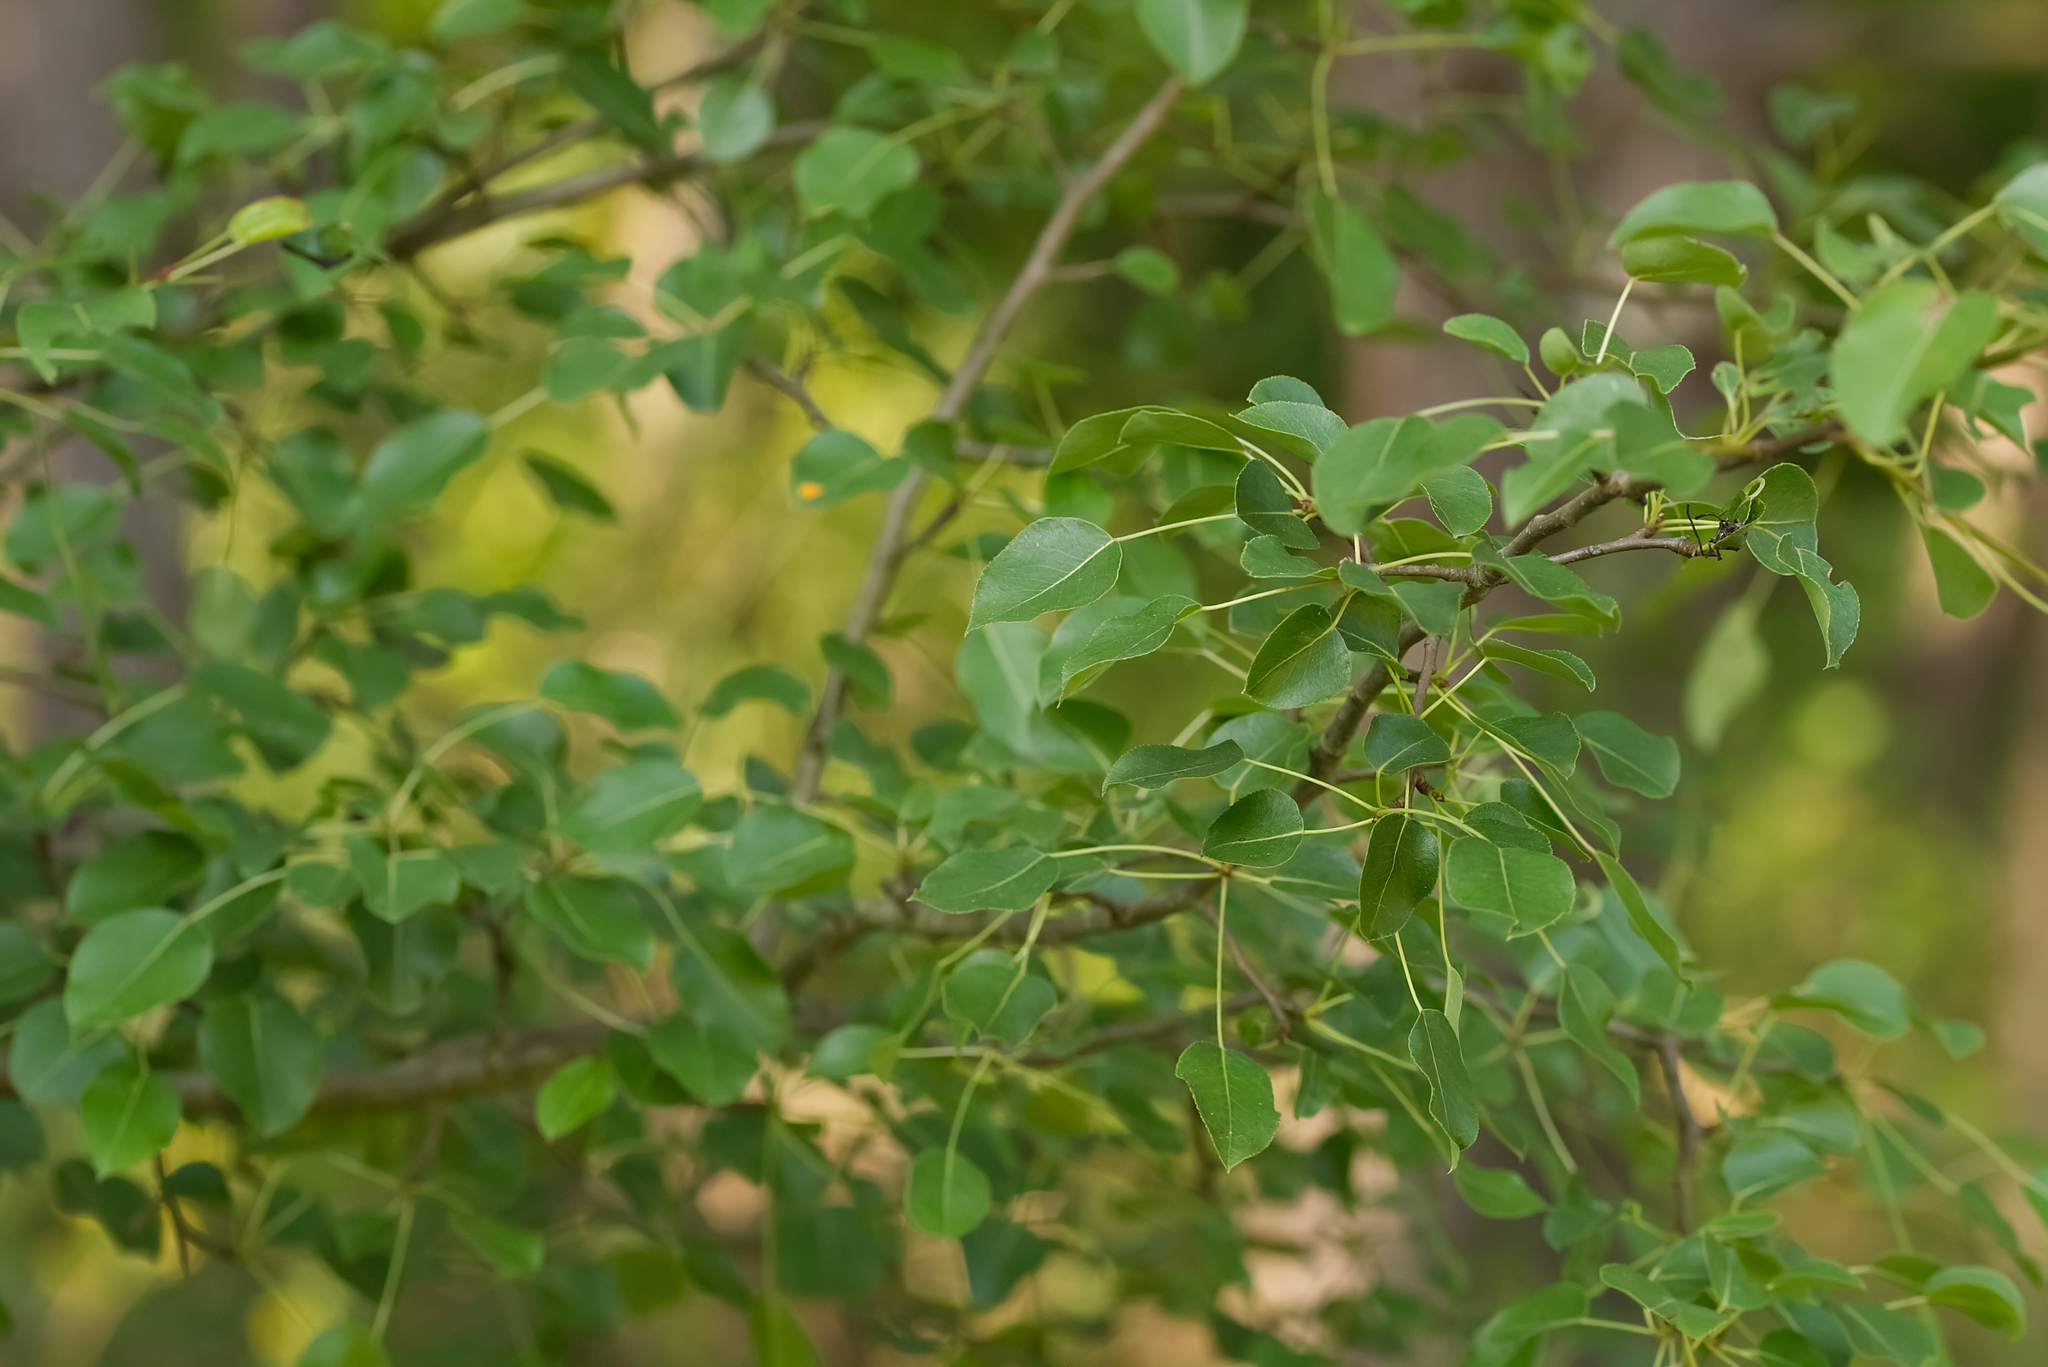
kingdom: Plantae
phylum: Tracheophyta
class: Magnoliopsida
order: Rosales
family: Rosaceae
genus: Pyrus
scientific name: Pyrus
